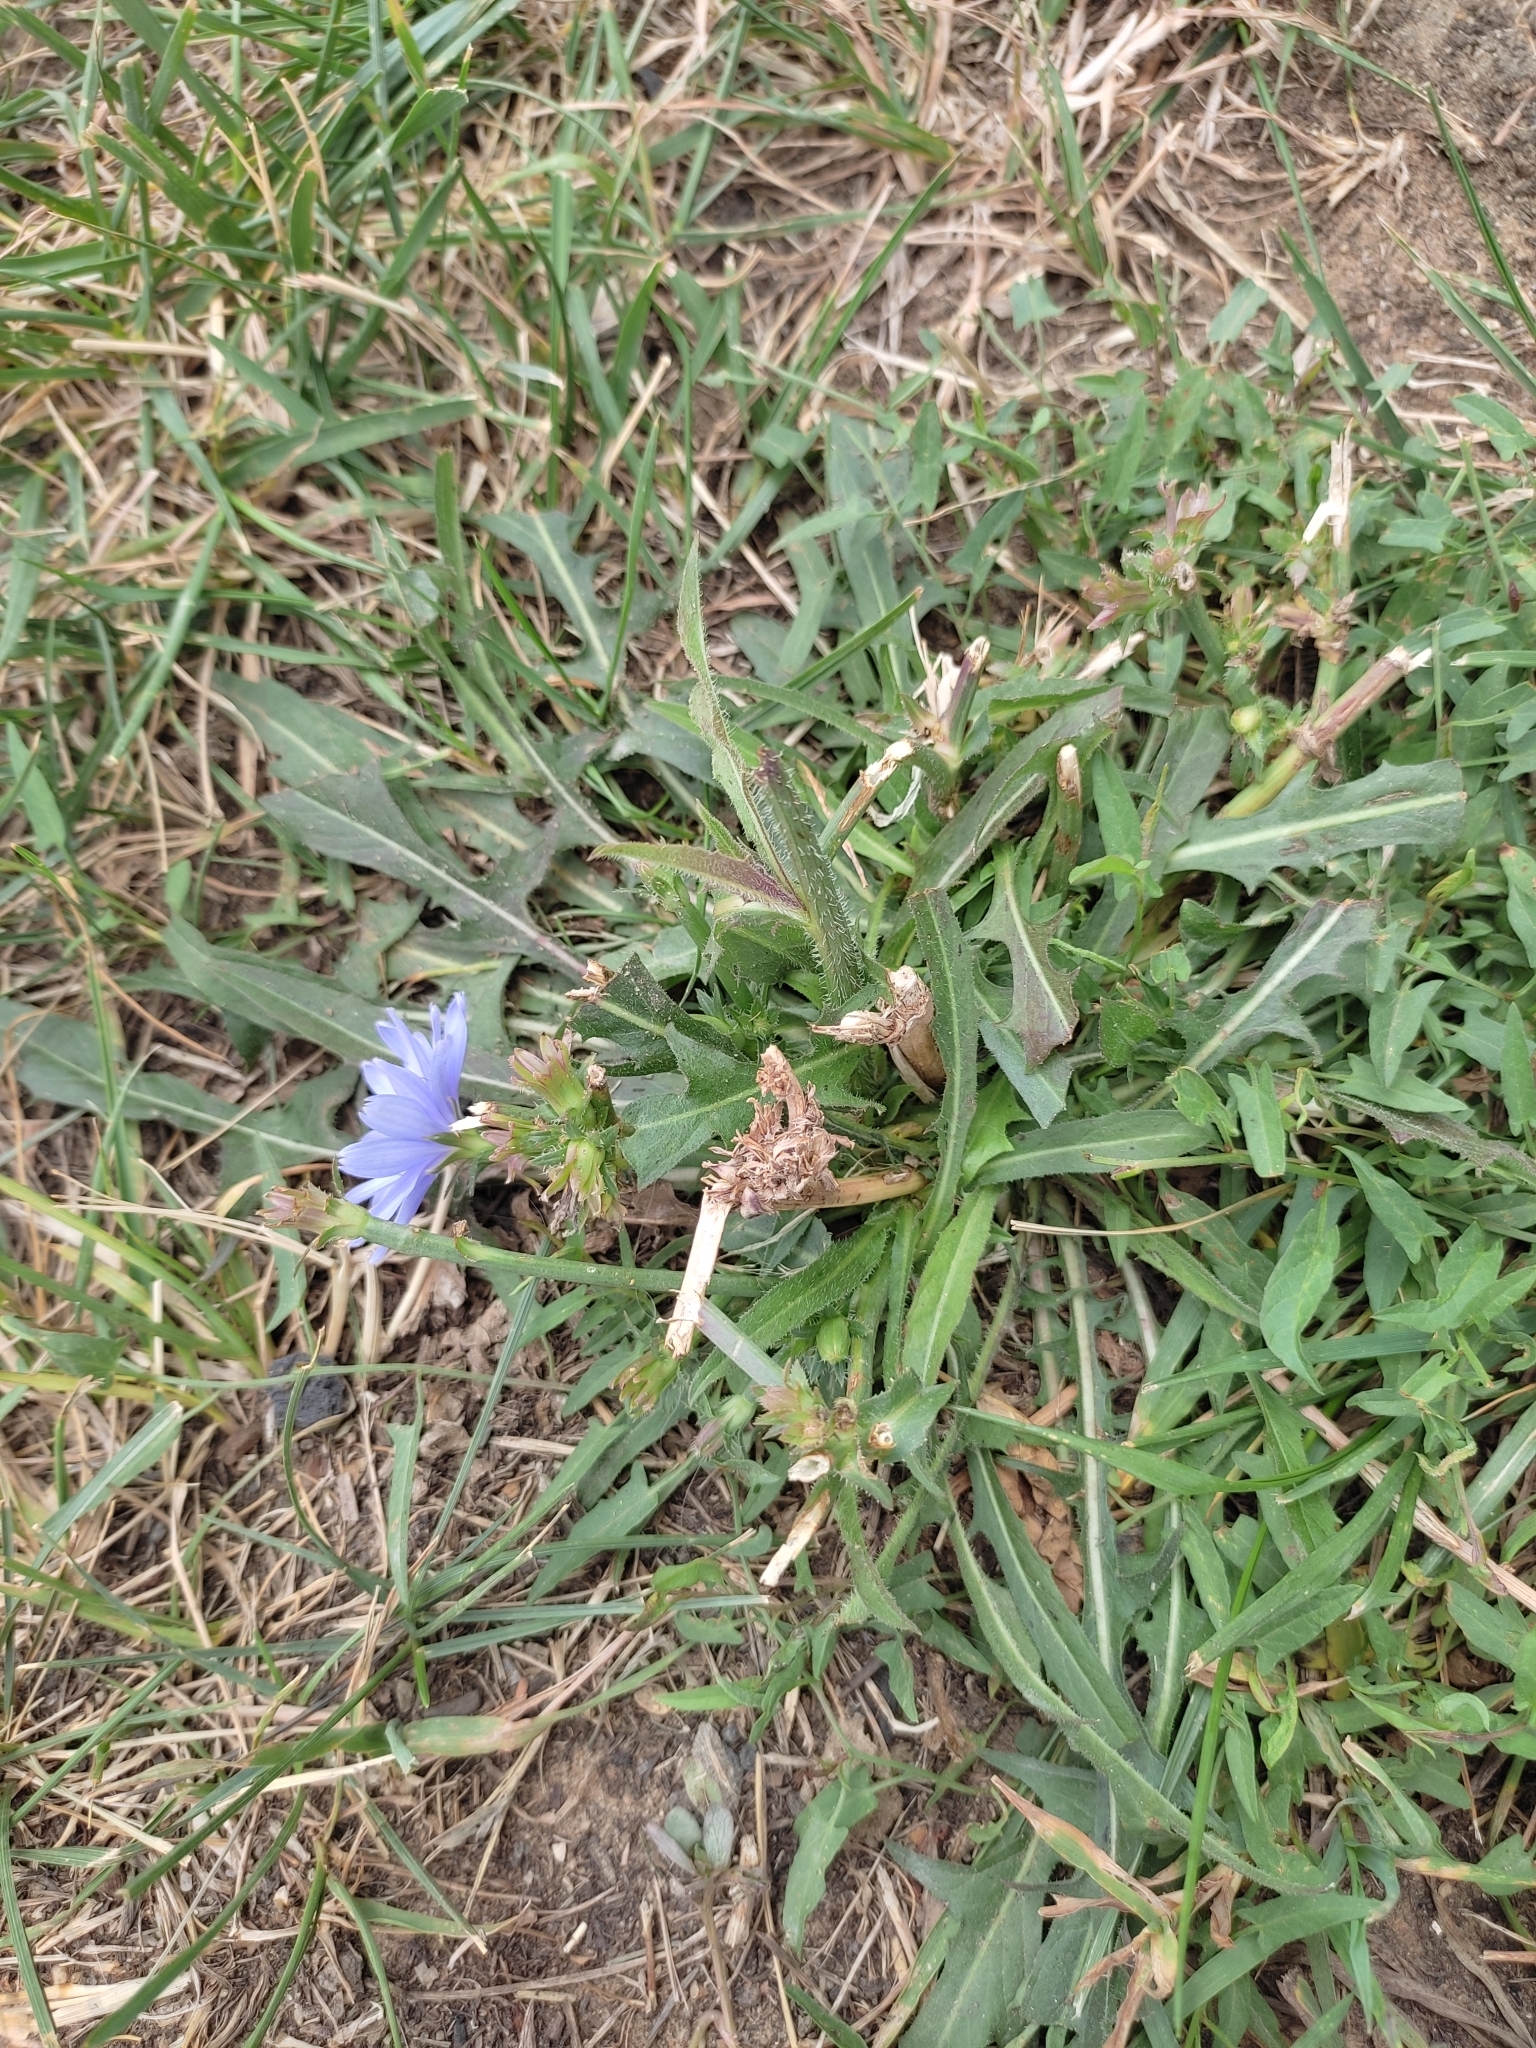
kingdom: Plantae
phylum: Tracheophyta
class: Magnoliopsida
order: Asterales
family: Asteraceae
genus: Cichorium
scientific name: Cichorium intybus
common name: Chicory
